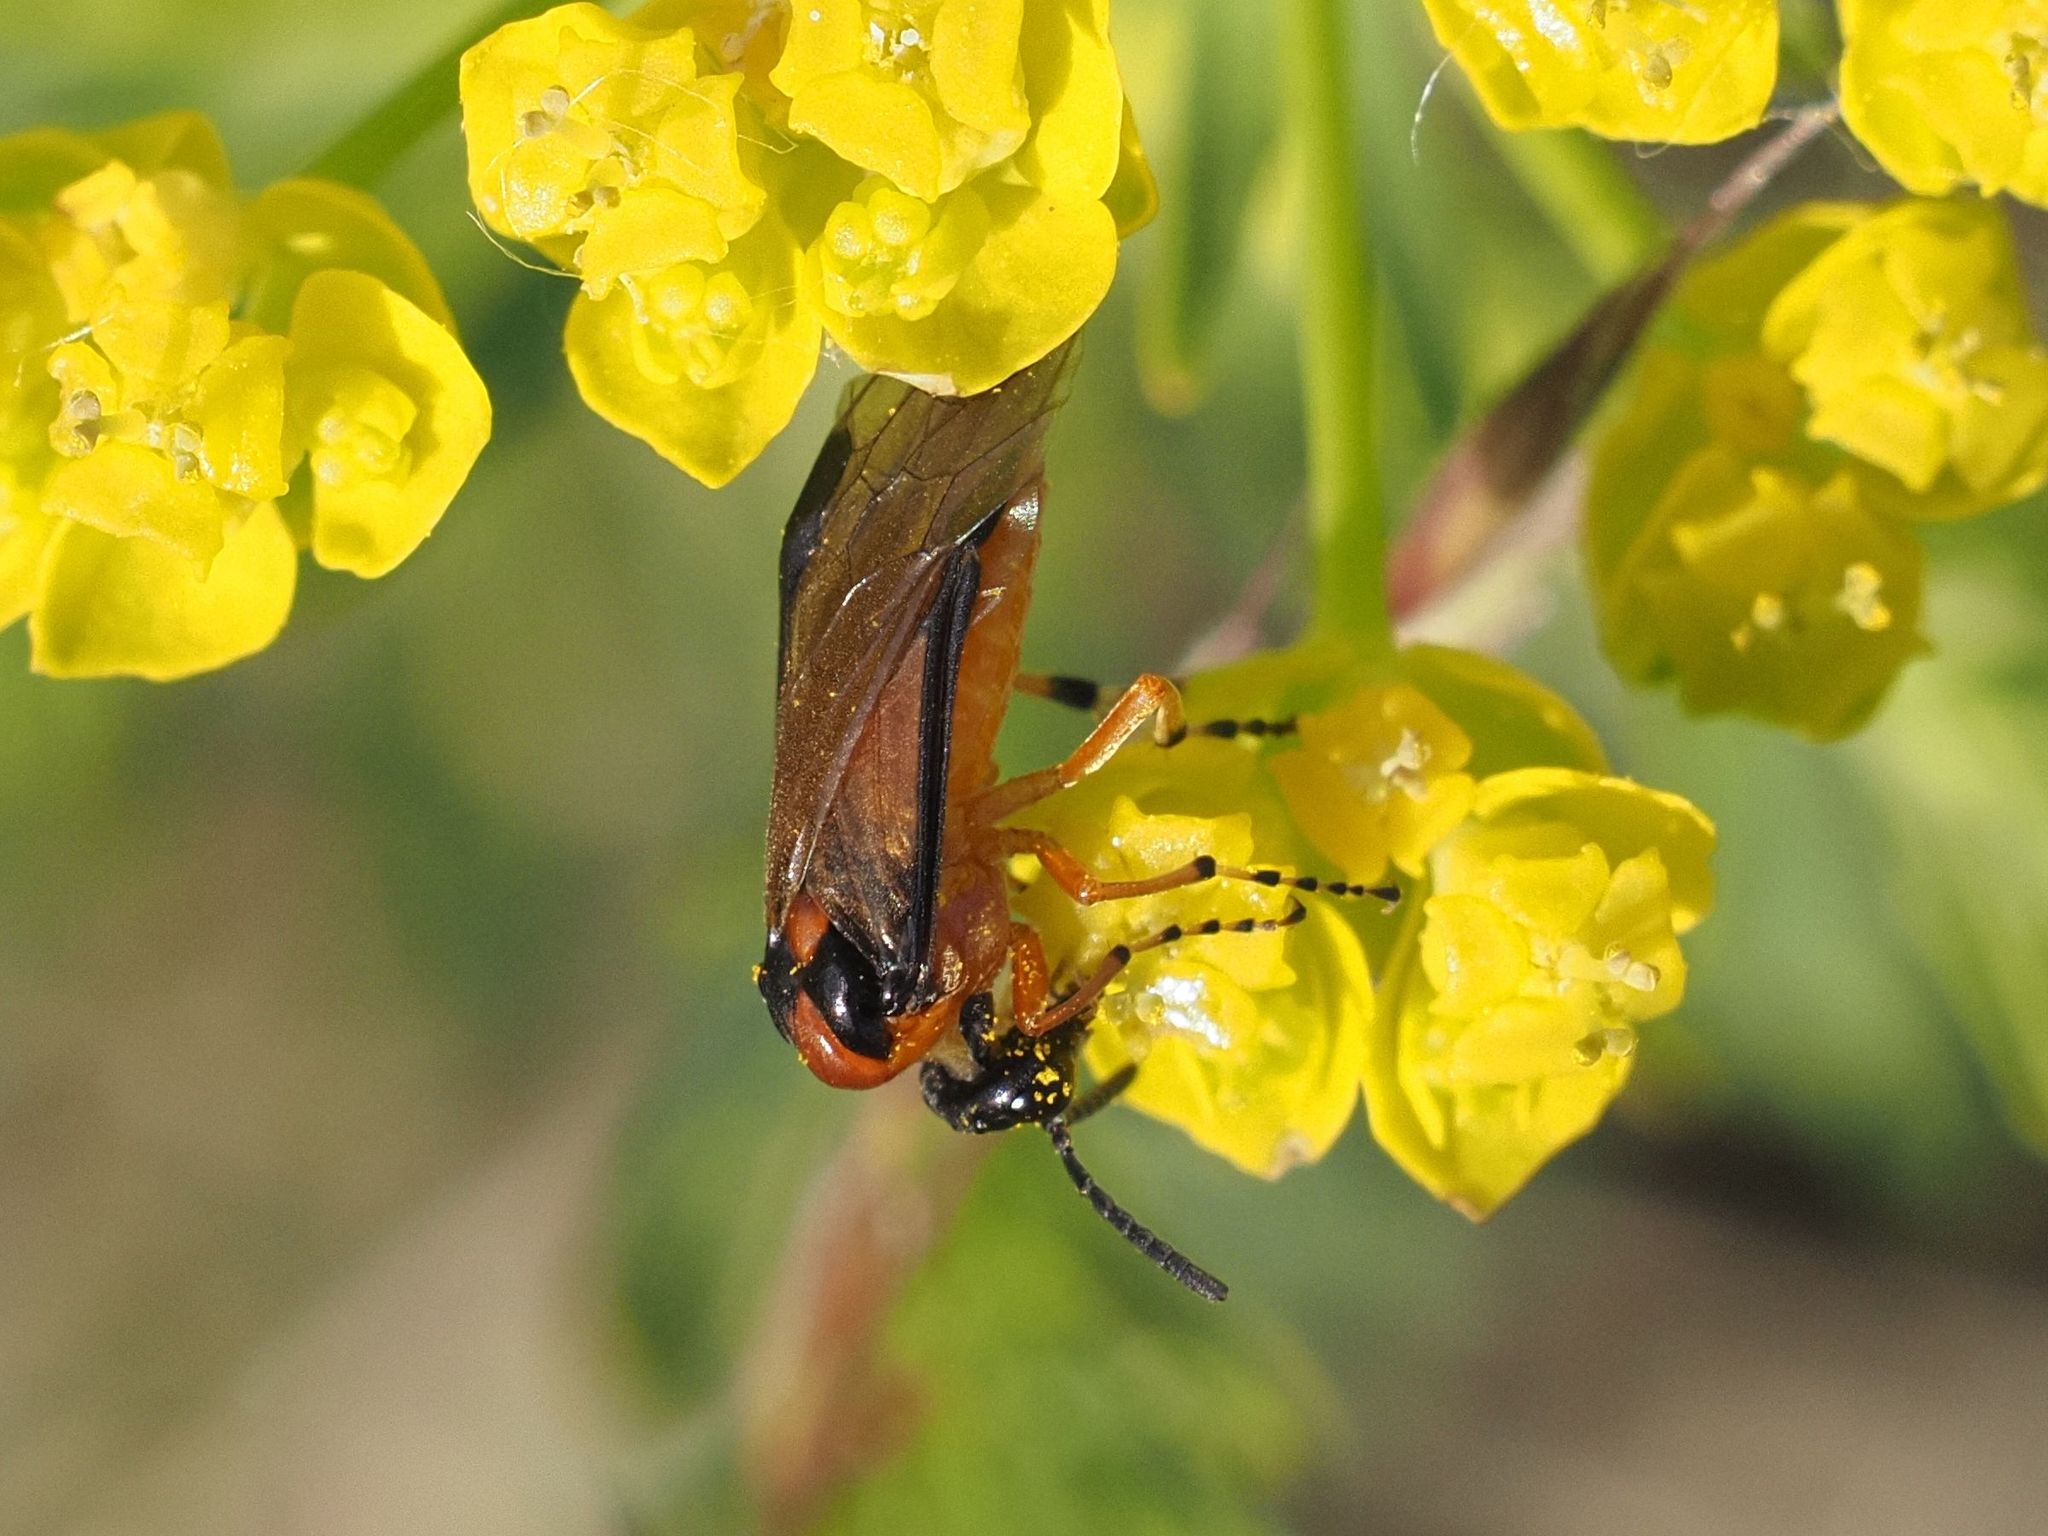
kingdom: Animalia
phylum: Arthropoda
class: Insecta
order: Hymenoptera
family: Tenthredinidae
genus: Athalia
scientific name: Athalia rosae
